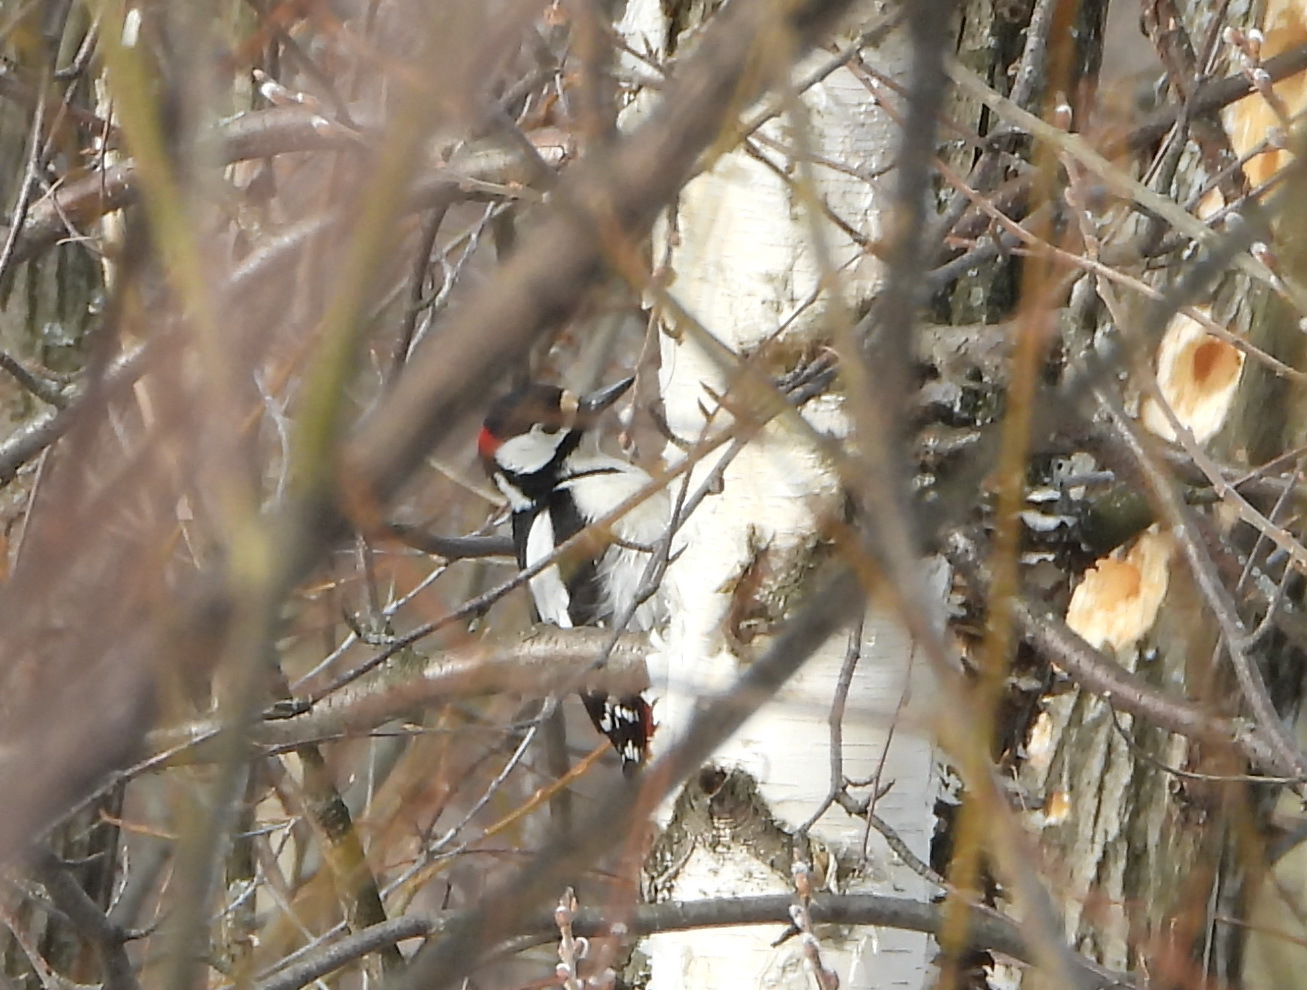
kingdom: Animalia
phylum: Chordata
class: Aves
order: Piciformes
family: Picidae
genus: Dendrocopos
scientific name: Dendrocopos major
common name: Great spotted woodpecker
